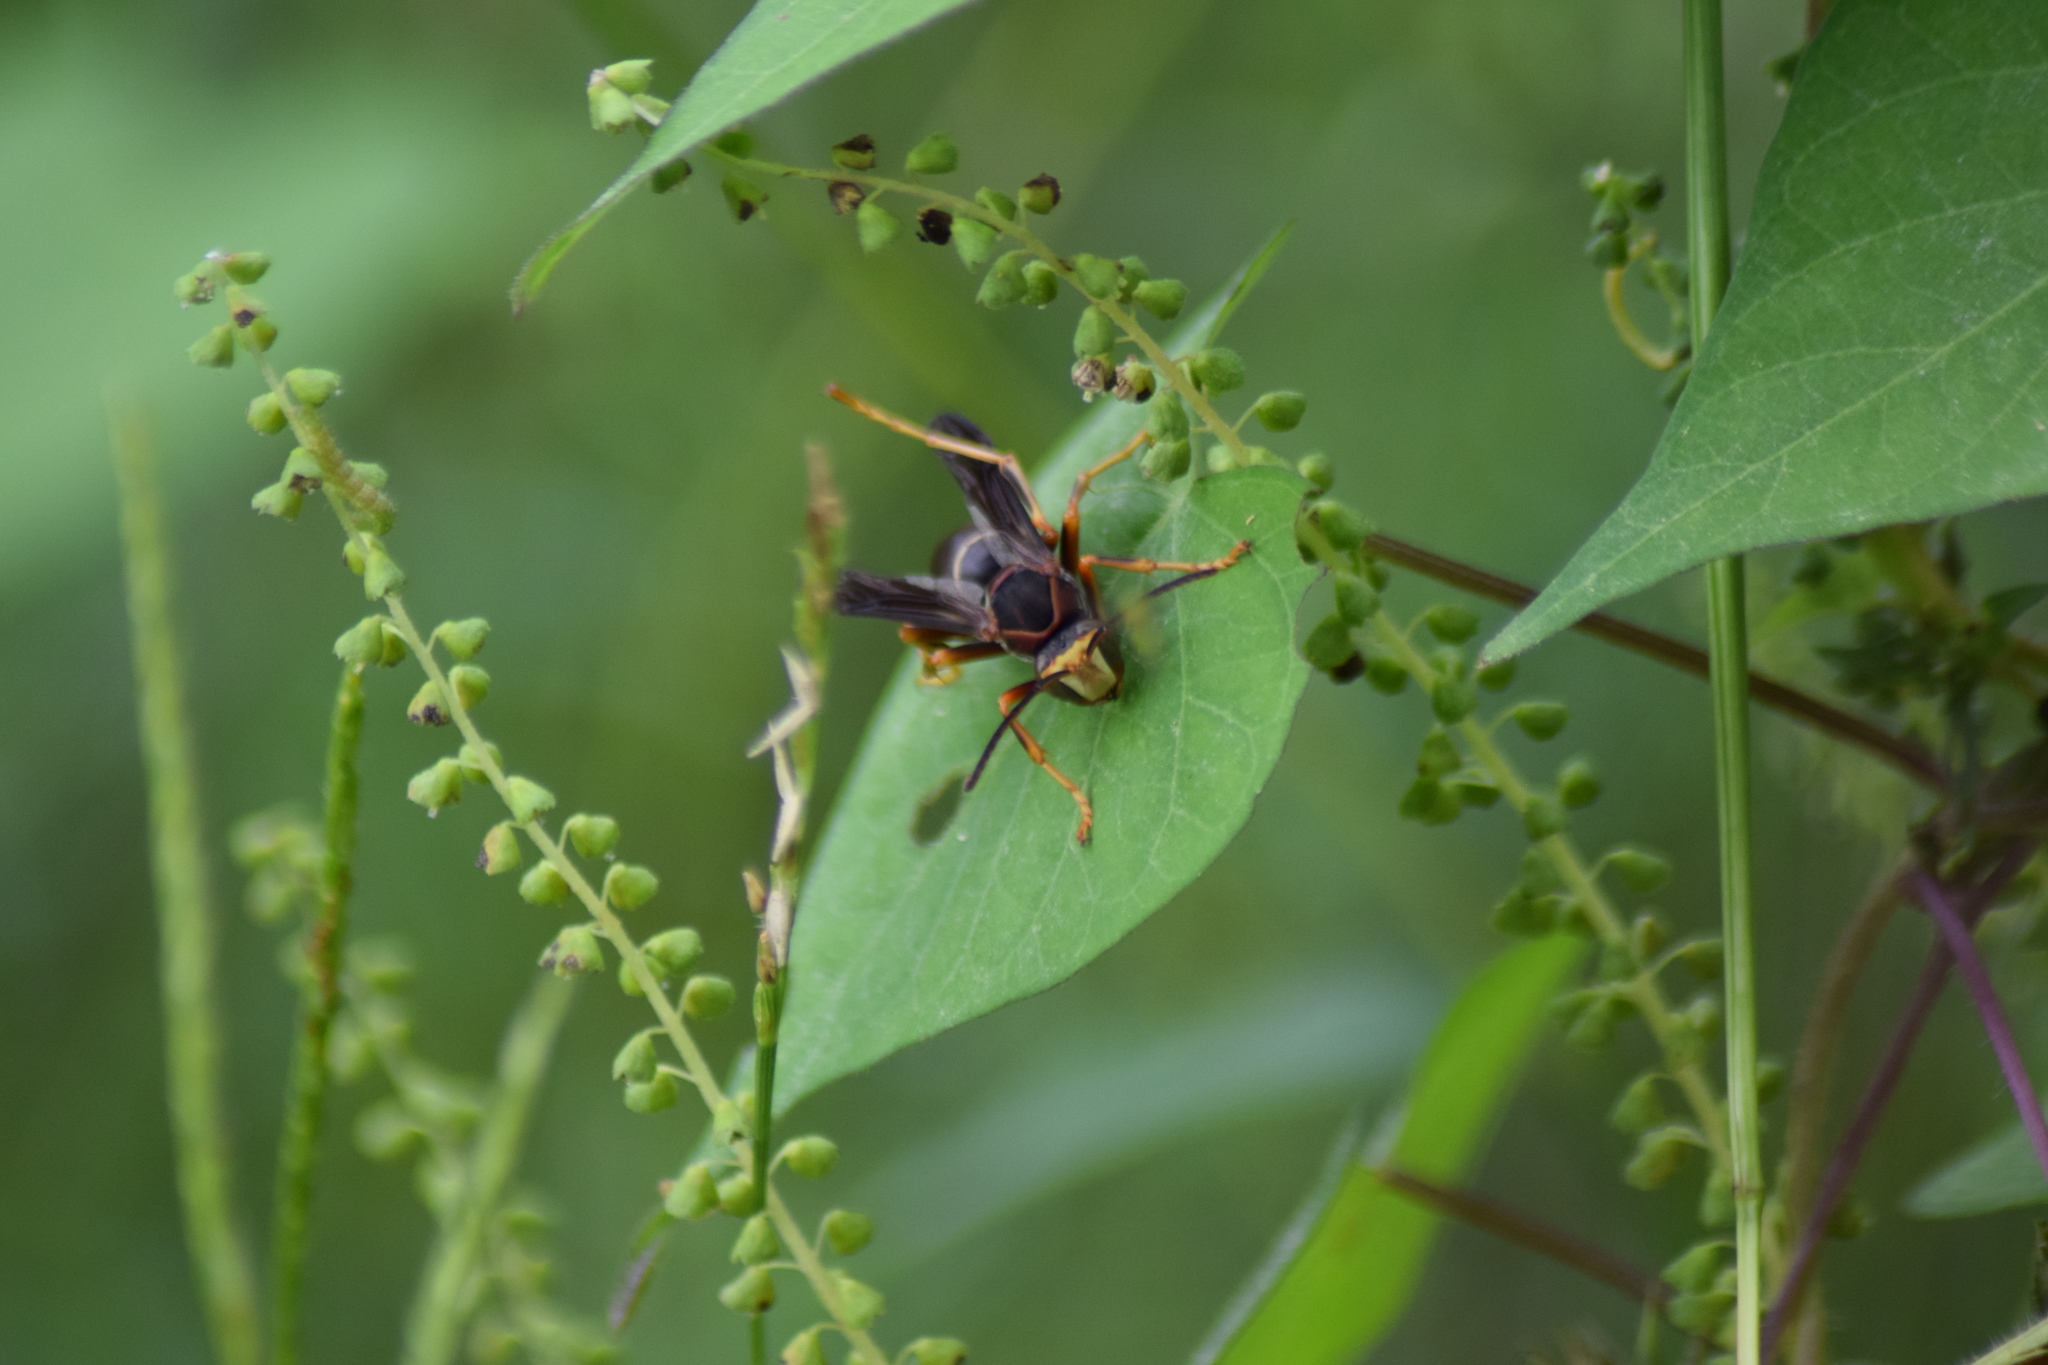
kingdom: Animalia
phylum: Arthropoda
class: Insecta
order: Hymenoptera
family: Vespidae
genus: Fuscopolistes
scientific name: Fuscopolistes
